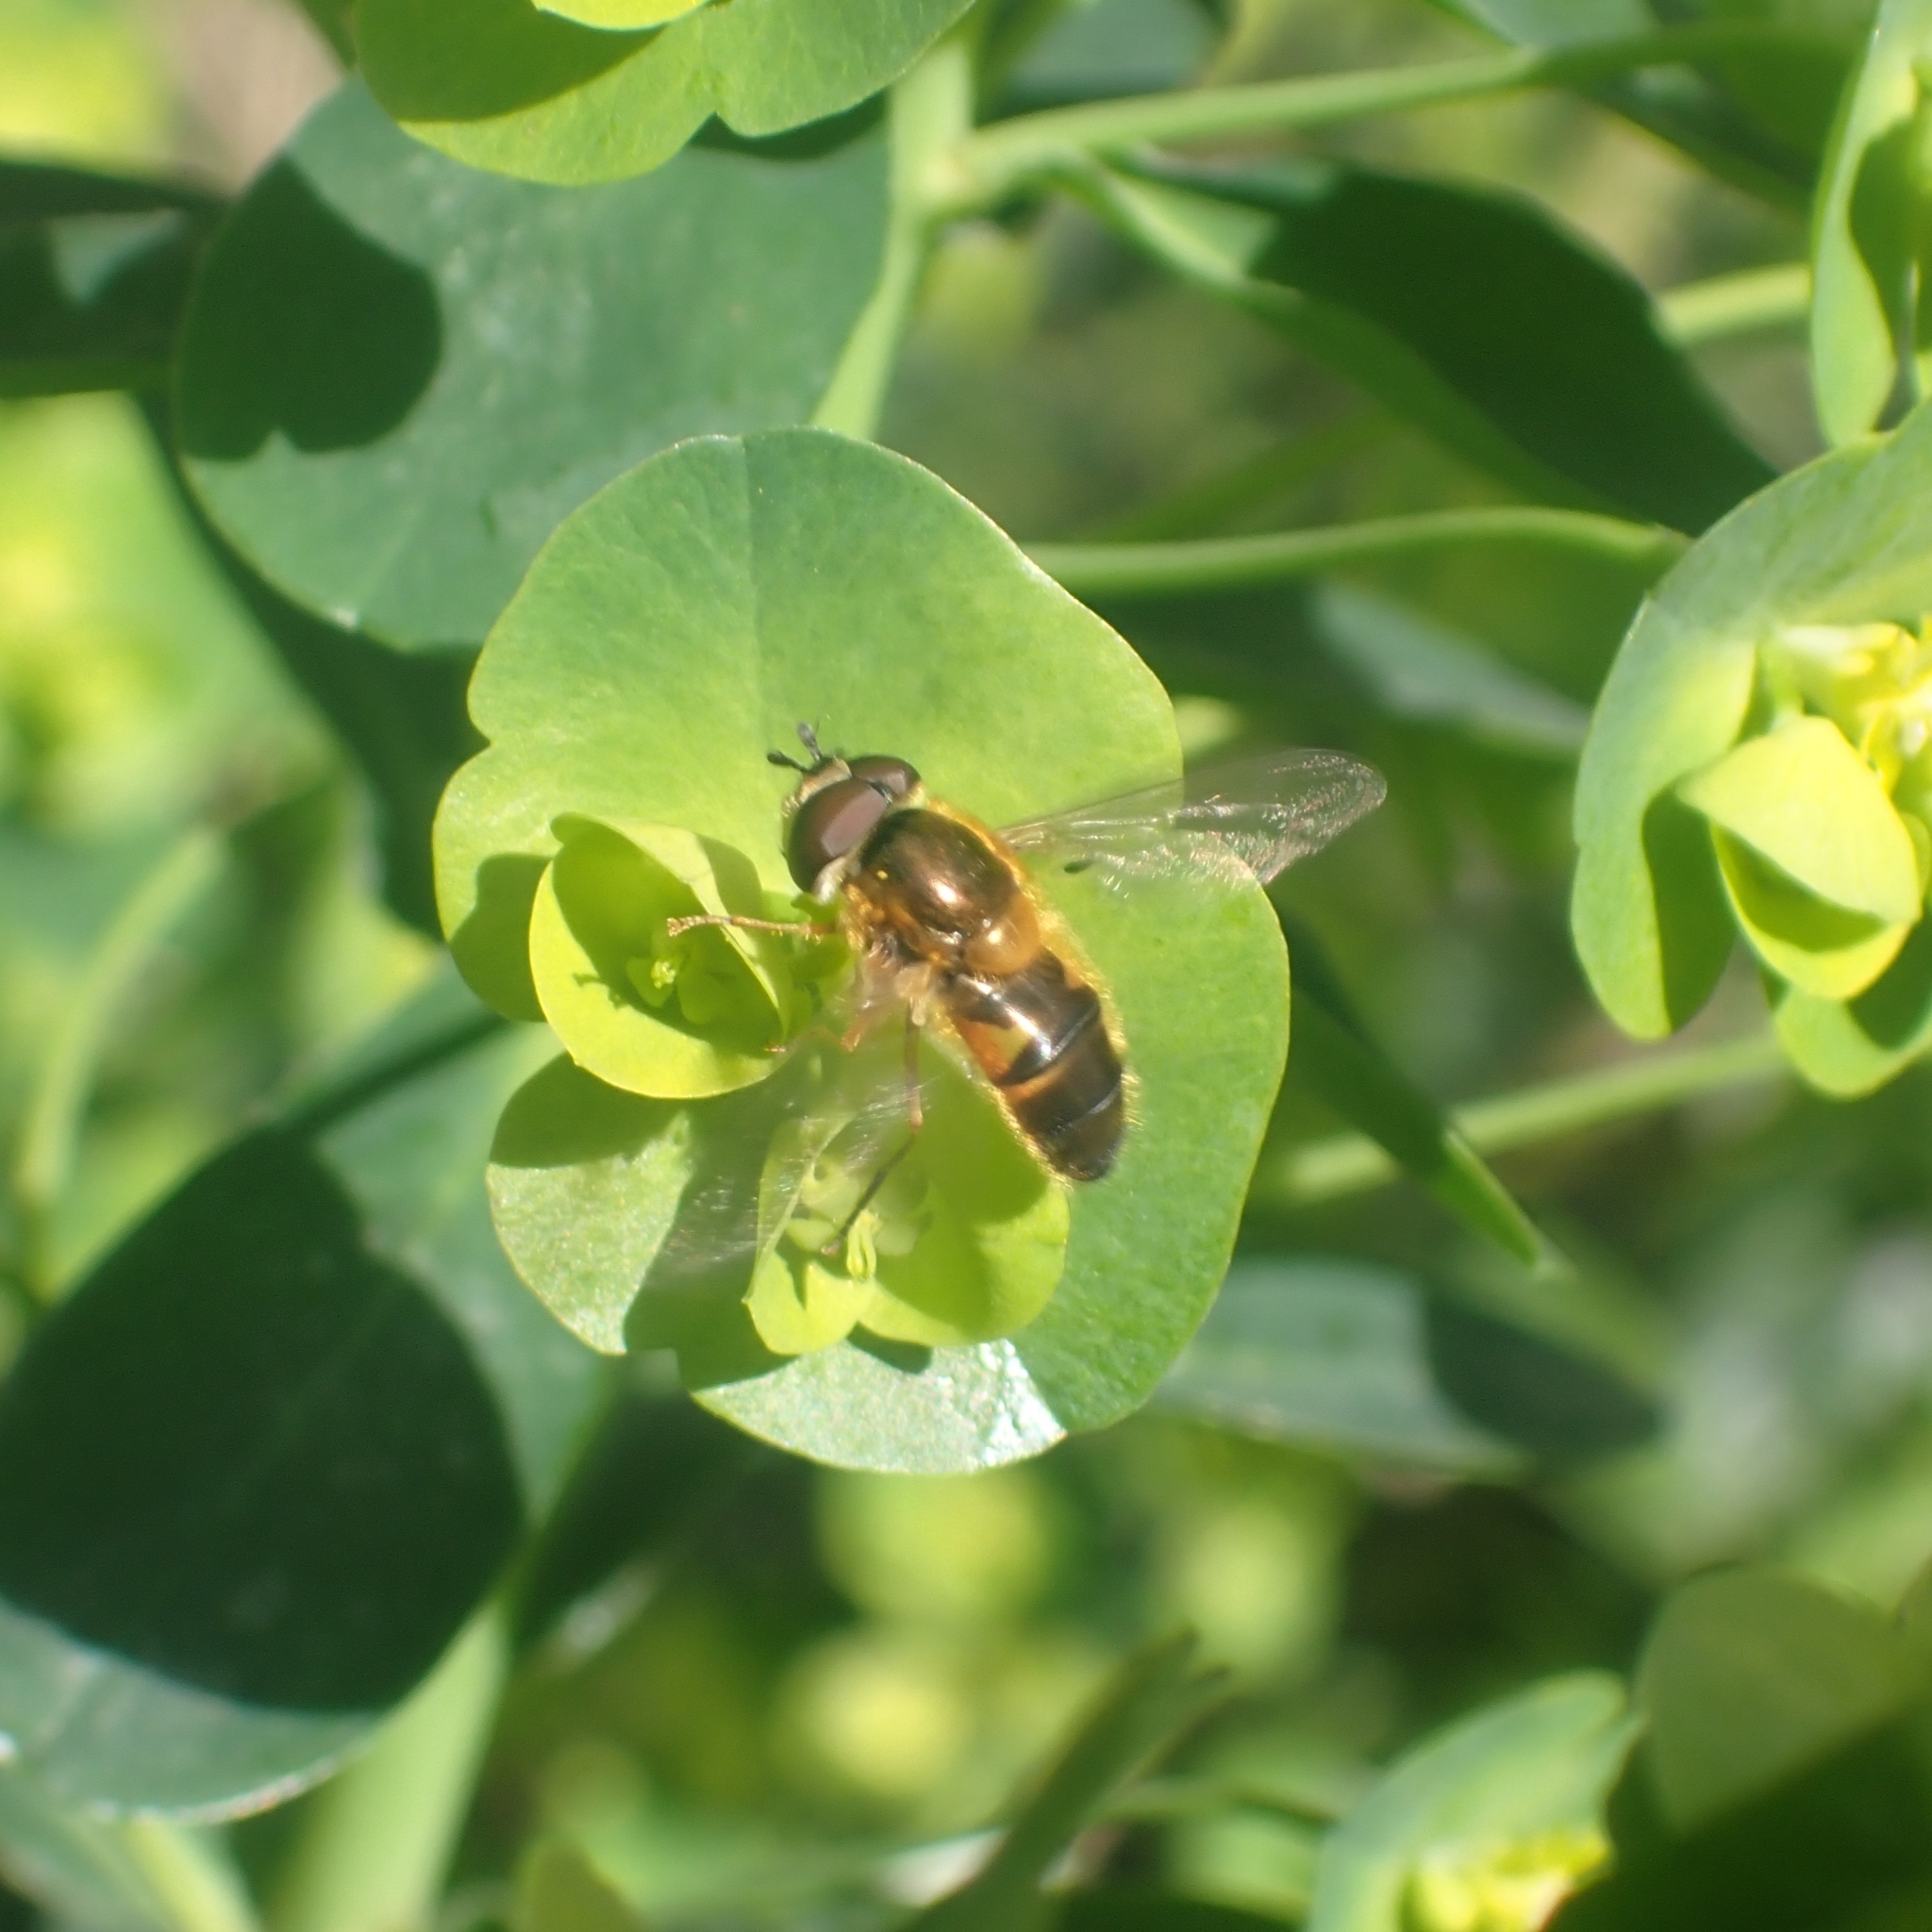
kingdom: Animalia
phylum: Arthropoda
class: Insecta
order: Diptera
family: Syrphidae
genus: Epistrophe
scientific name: Epistrophe eligans
